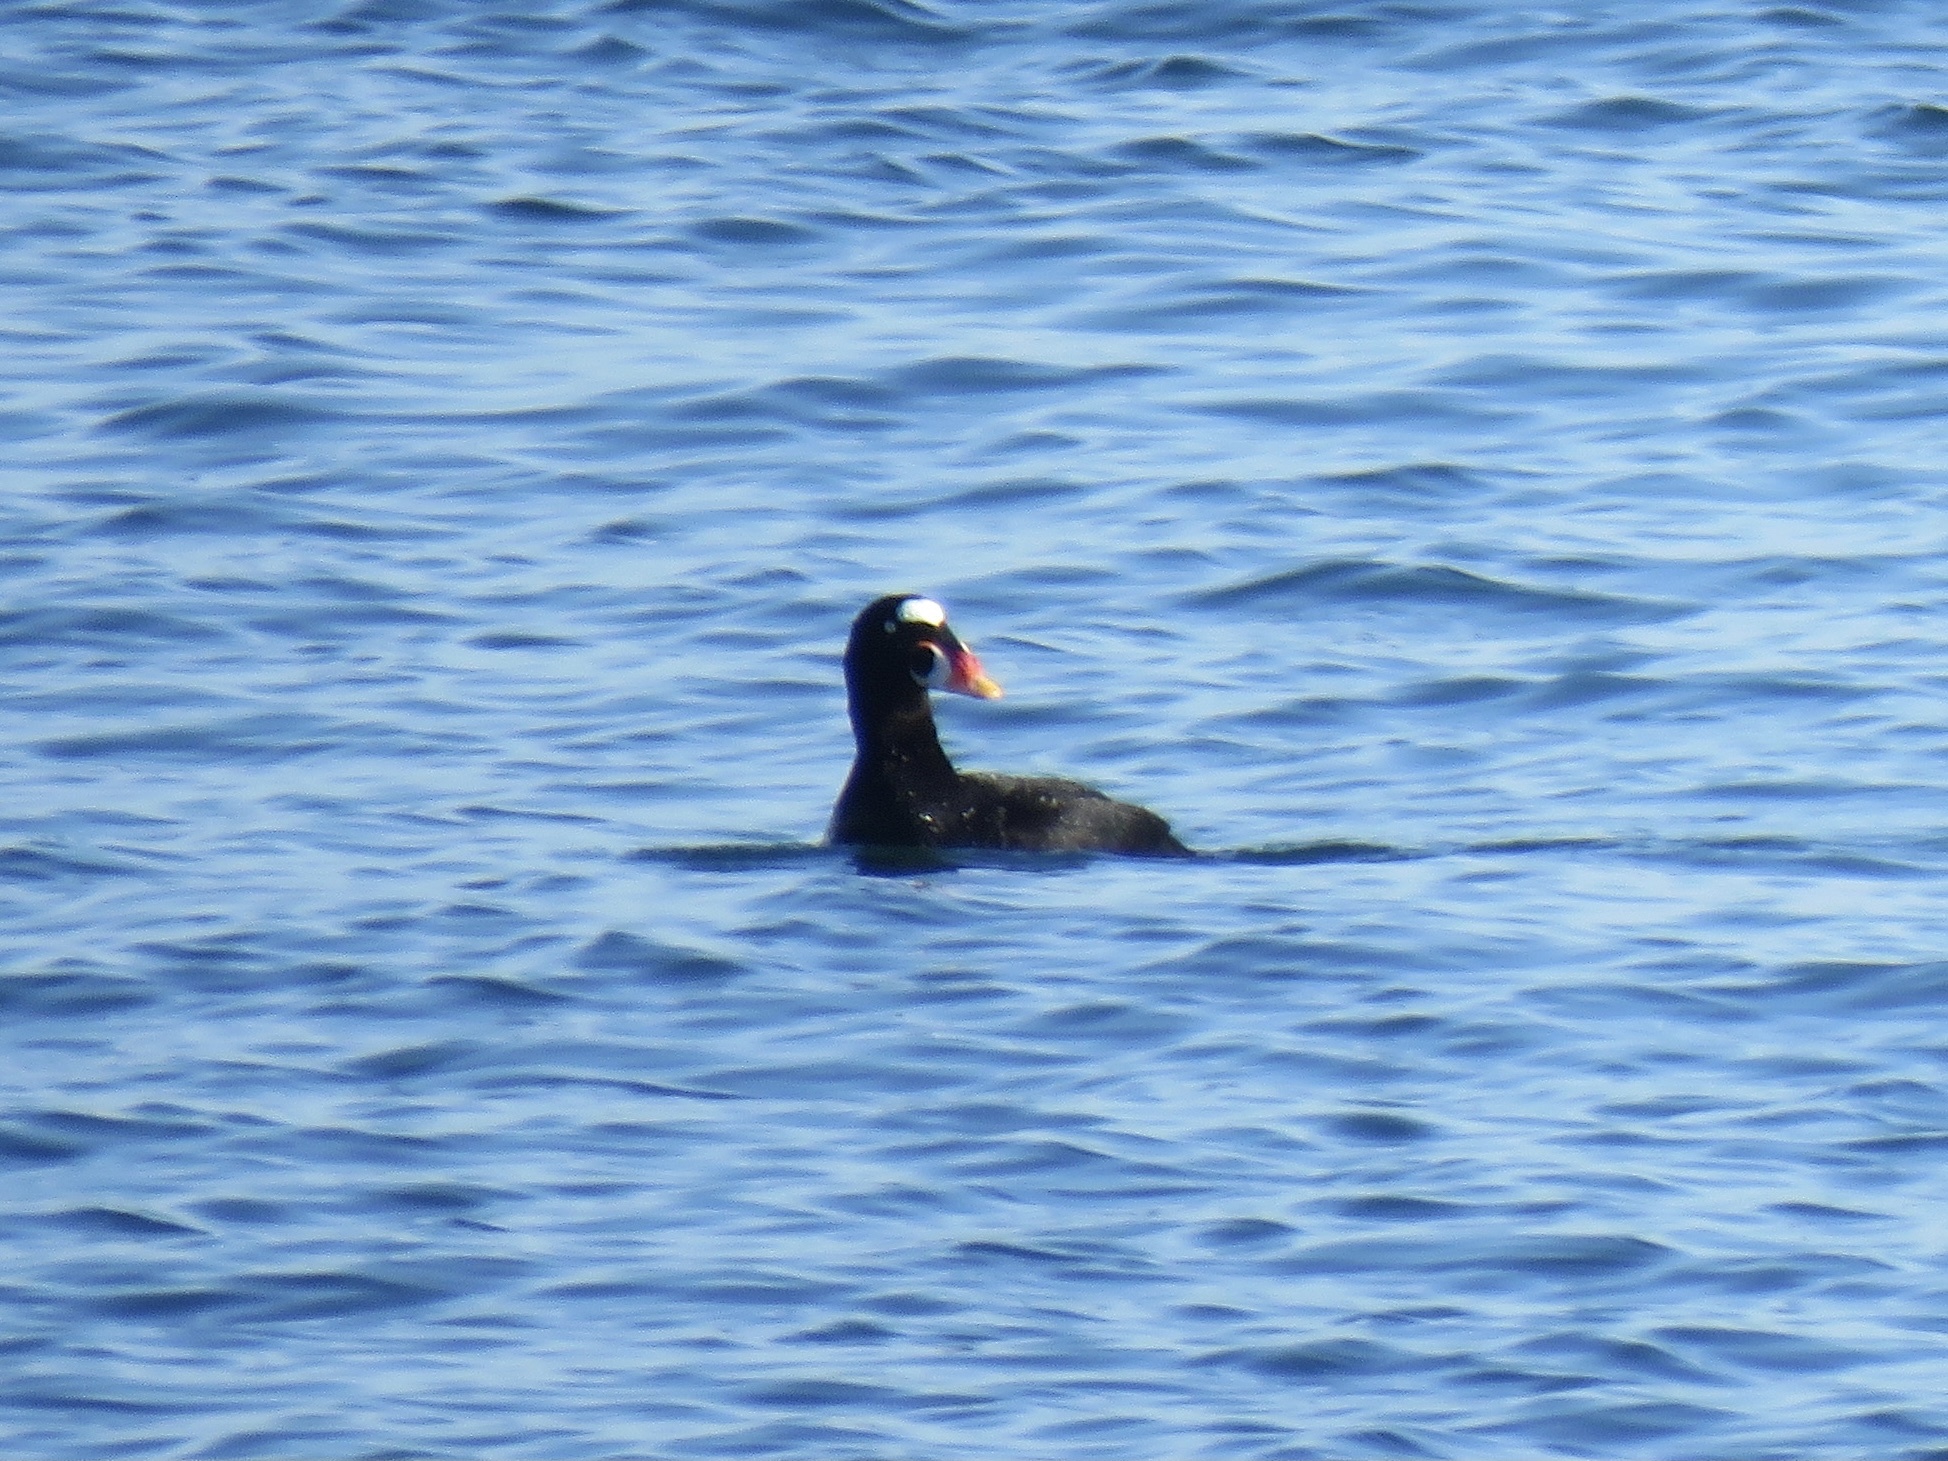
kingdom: Animalia
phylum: Chordata
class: Aves
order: Anseriformes
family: Anatidae
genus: Melanitta
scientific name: Melanitta perspicillata
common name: Surf scoter
